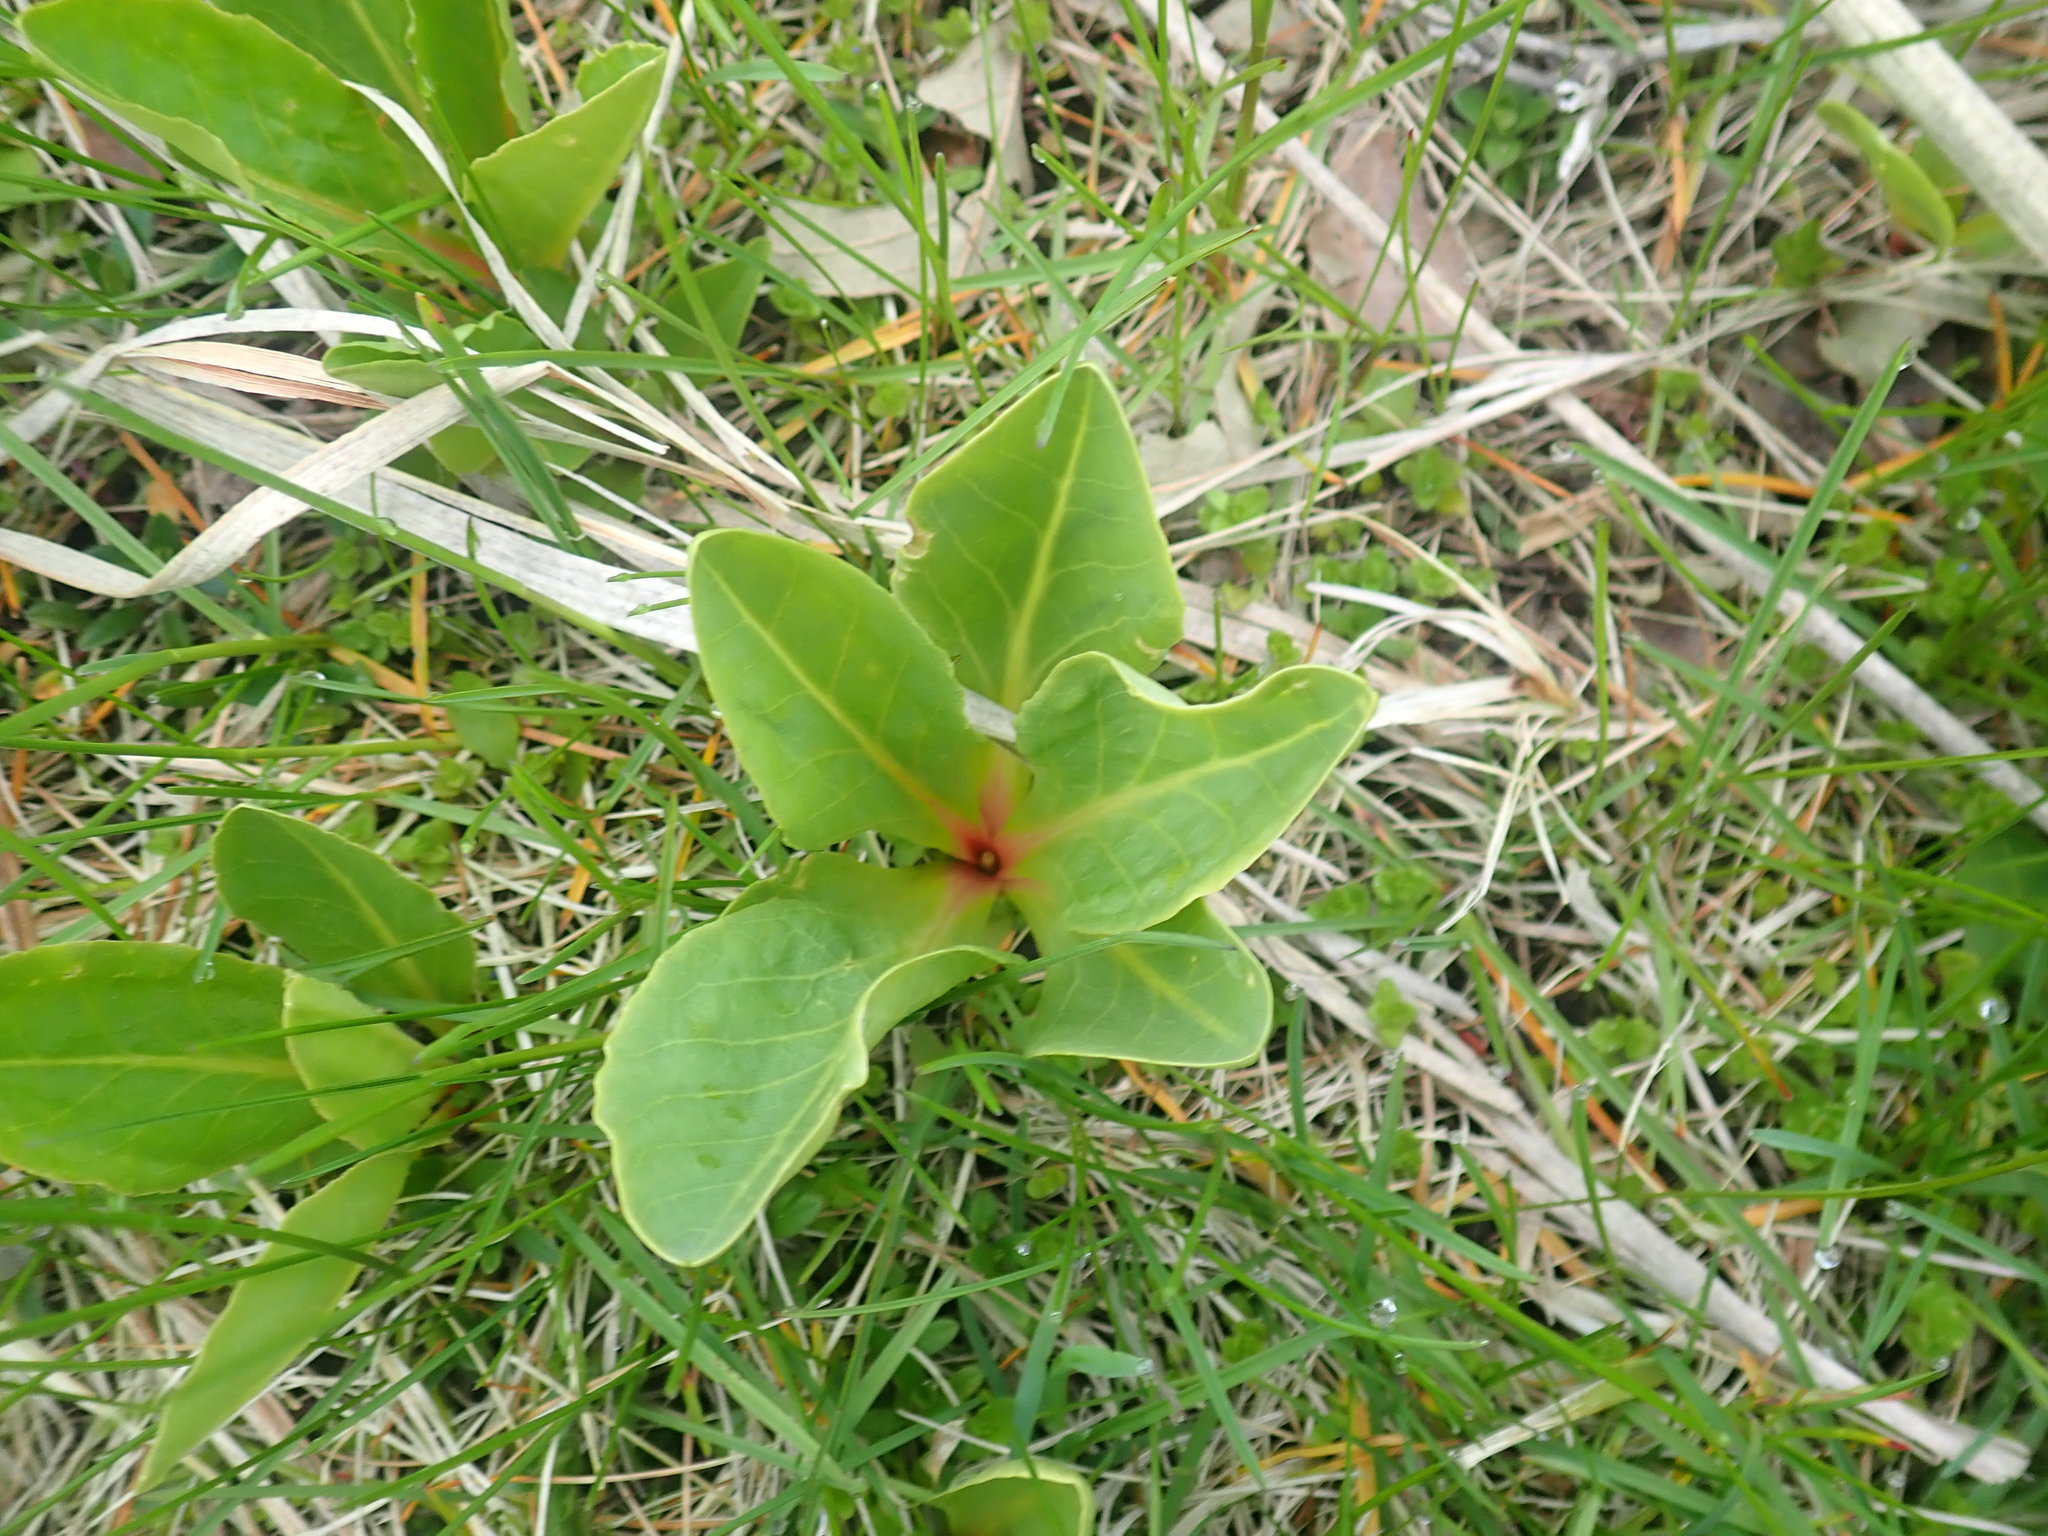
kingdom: Plantae
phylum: Tracheophyta
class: Magnoliopsida
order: Ericales
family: Primulaceae
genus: Dodecatheon
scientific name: Dodecatheon meadia
